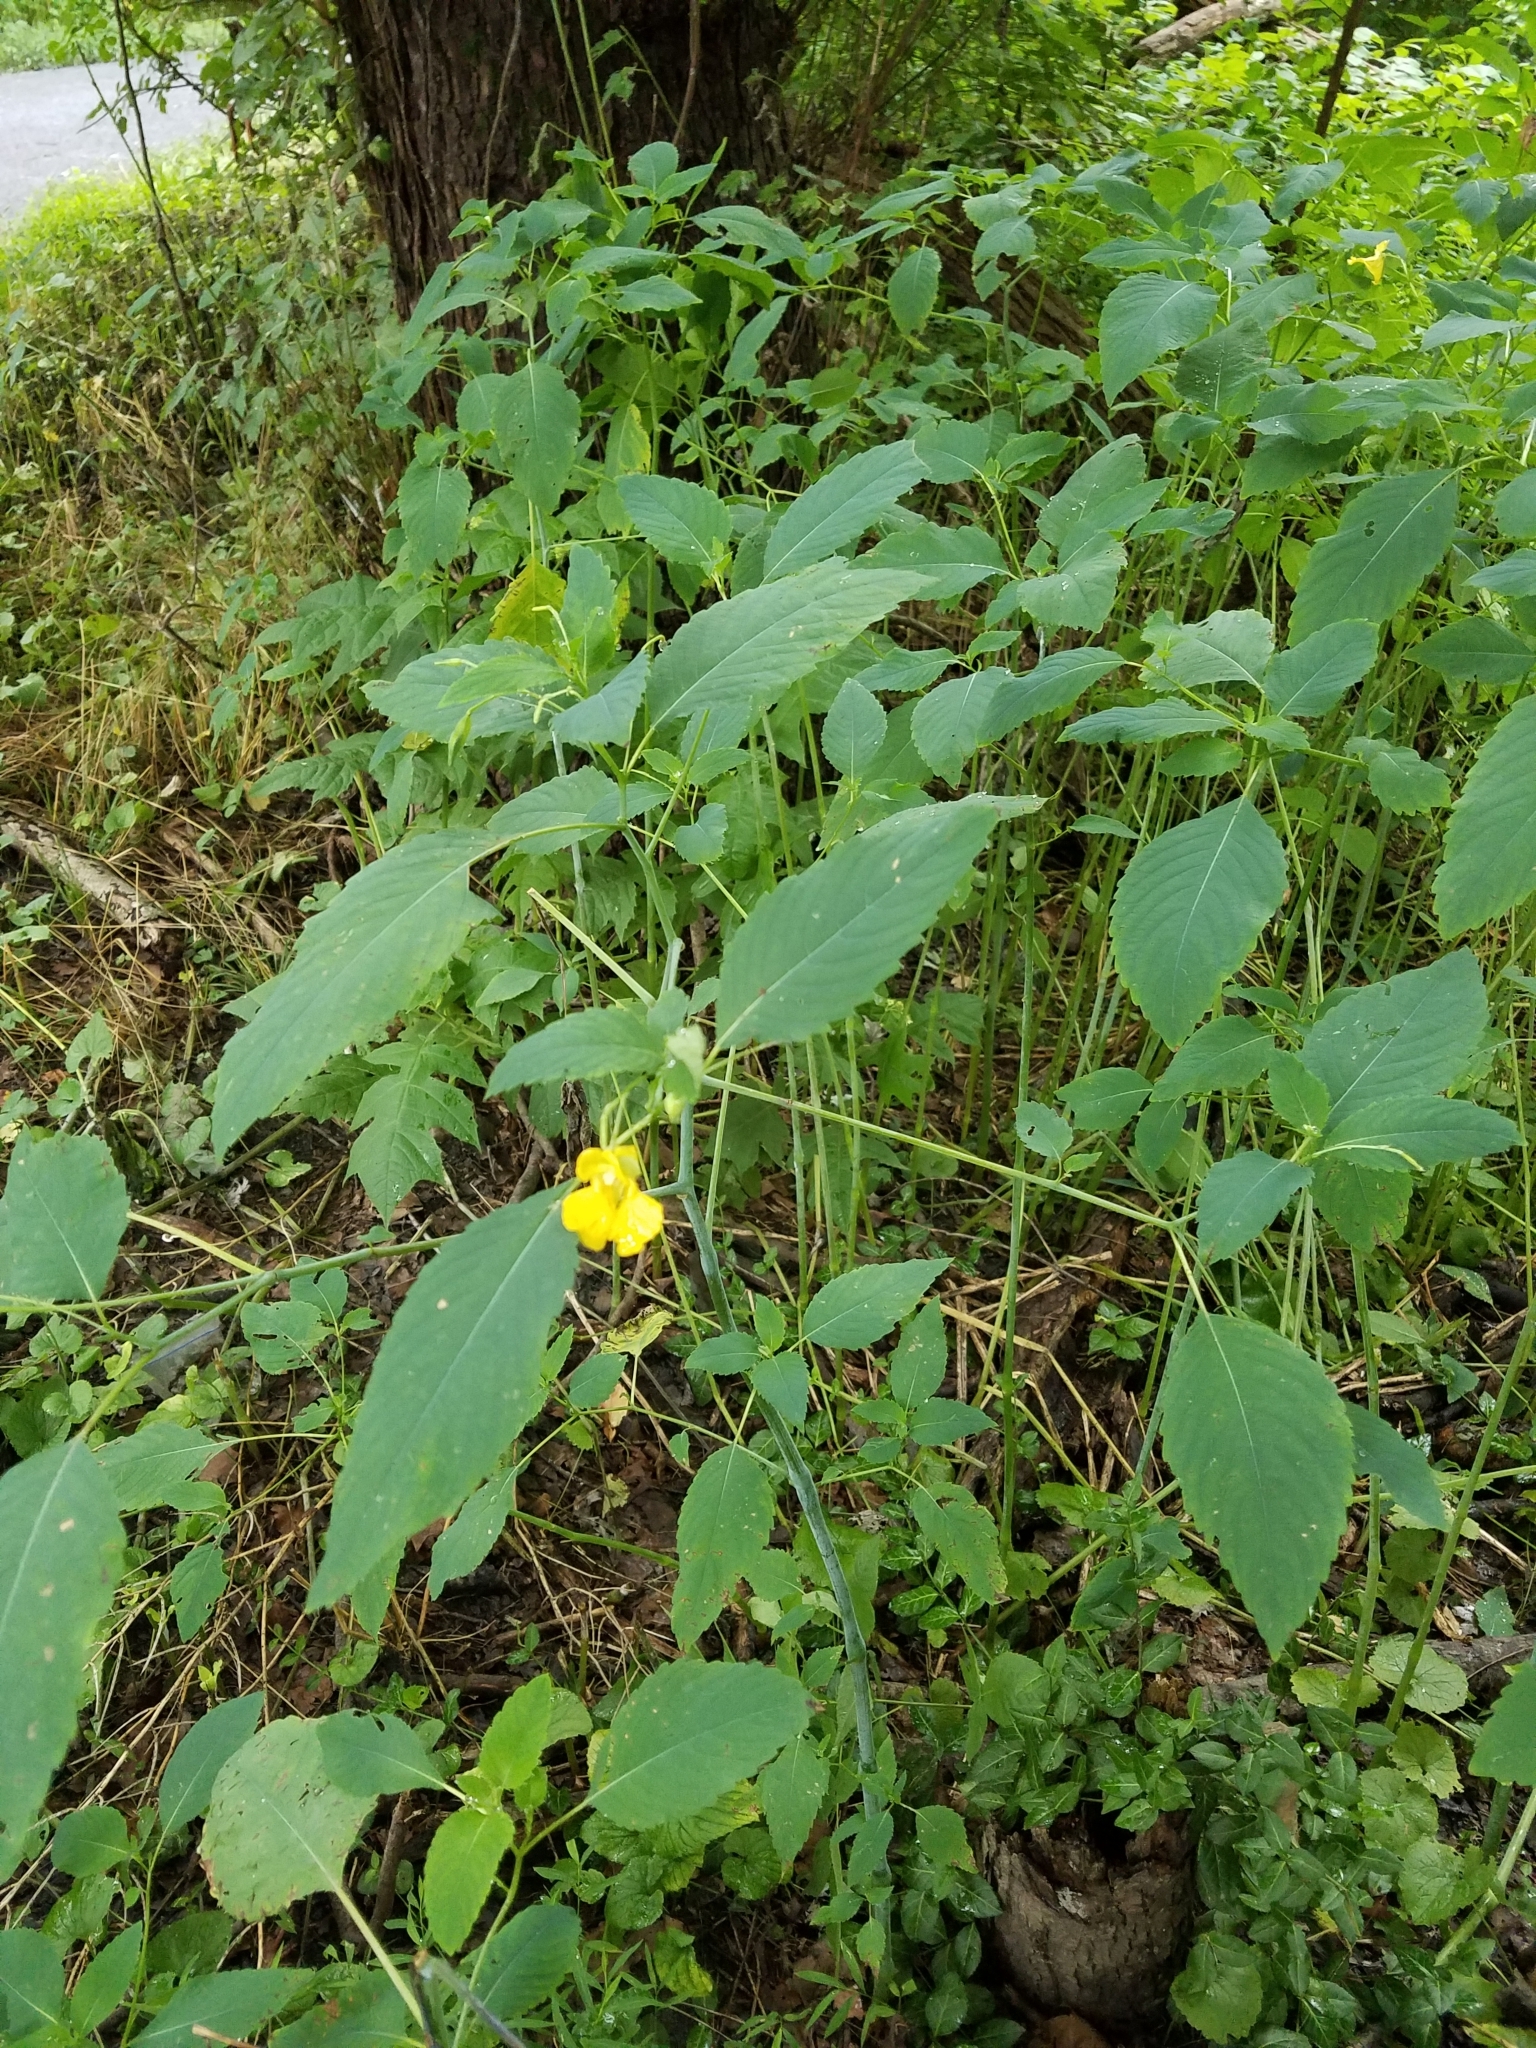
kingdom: Plantae
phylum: Tracheophyta
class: Magnoliopsida
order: Ericales
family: Balsaminaceae
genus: Impatiens
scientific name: Impatiens pallida
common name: Pale snapweed
